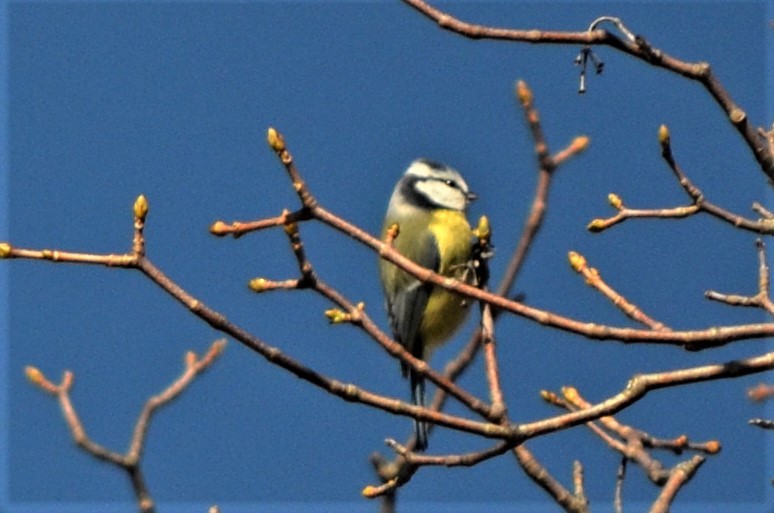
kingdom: Animalia
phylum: Chordata
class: Aves
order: Passeriformes
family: Paridae
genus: Cyanistes
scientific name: Cyanistes caeruleus
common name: Eurasian blue tit
